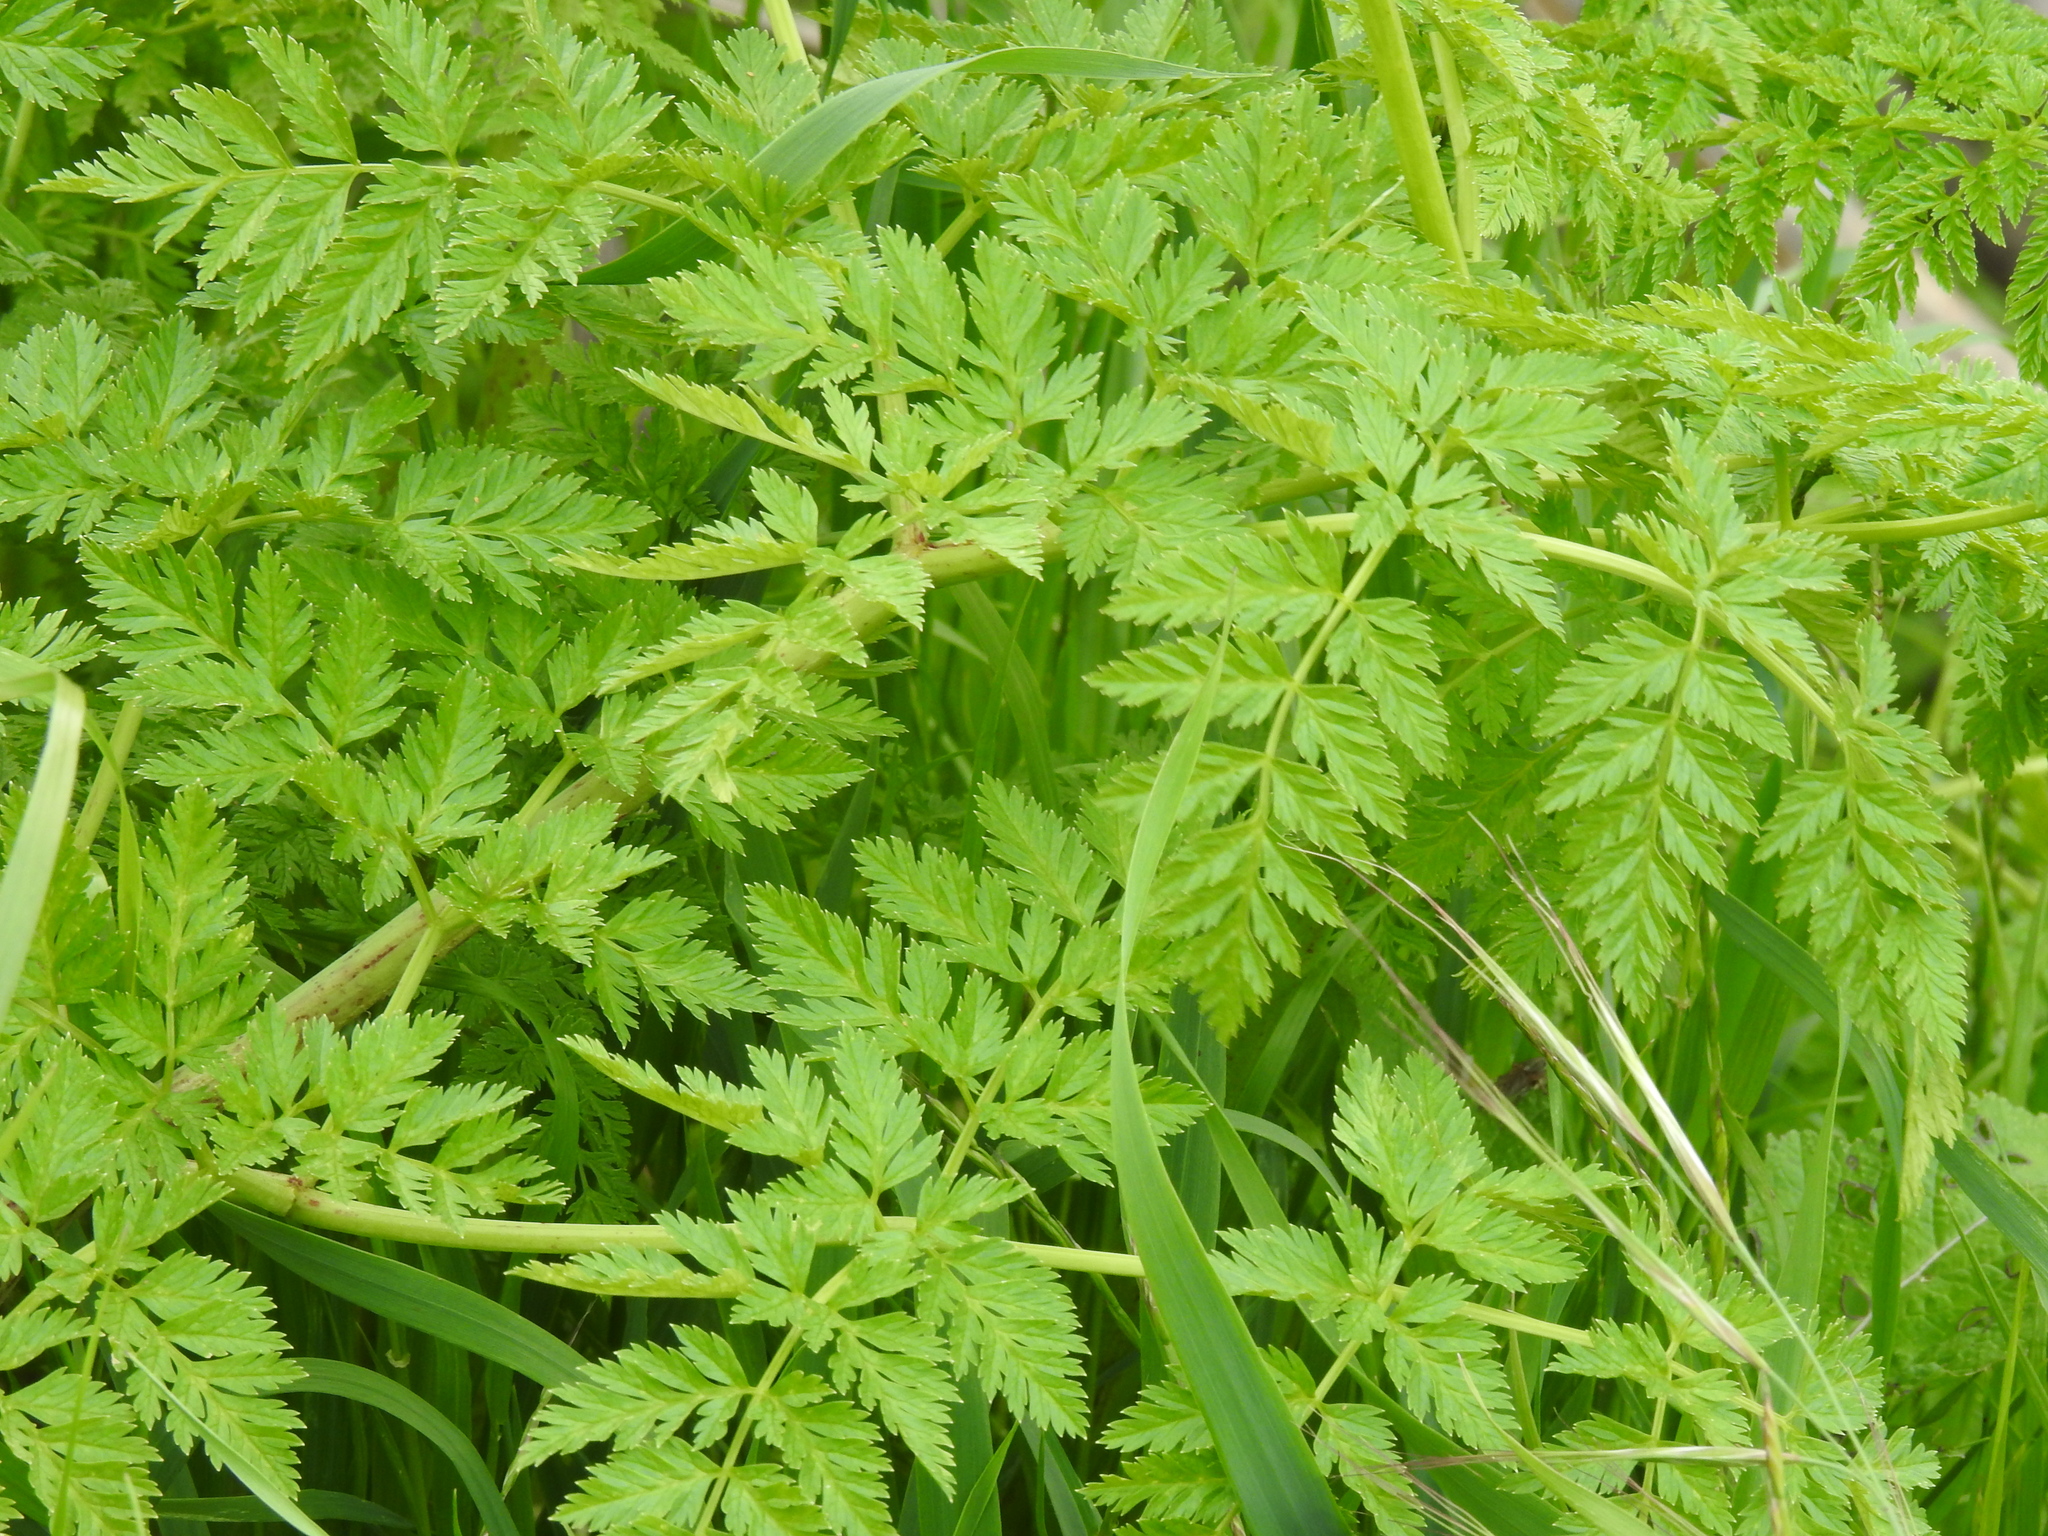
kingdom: Plantae
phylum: Tracheophyta
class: Magnoliopsida
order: Apiales
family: Apiaceae
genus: Conium
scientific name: Conium maculatum
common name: Hemlock
